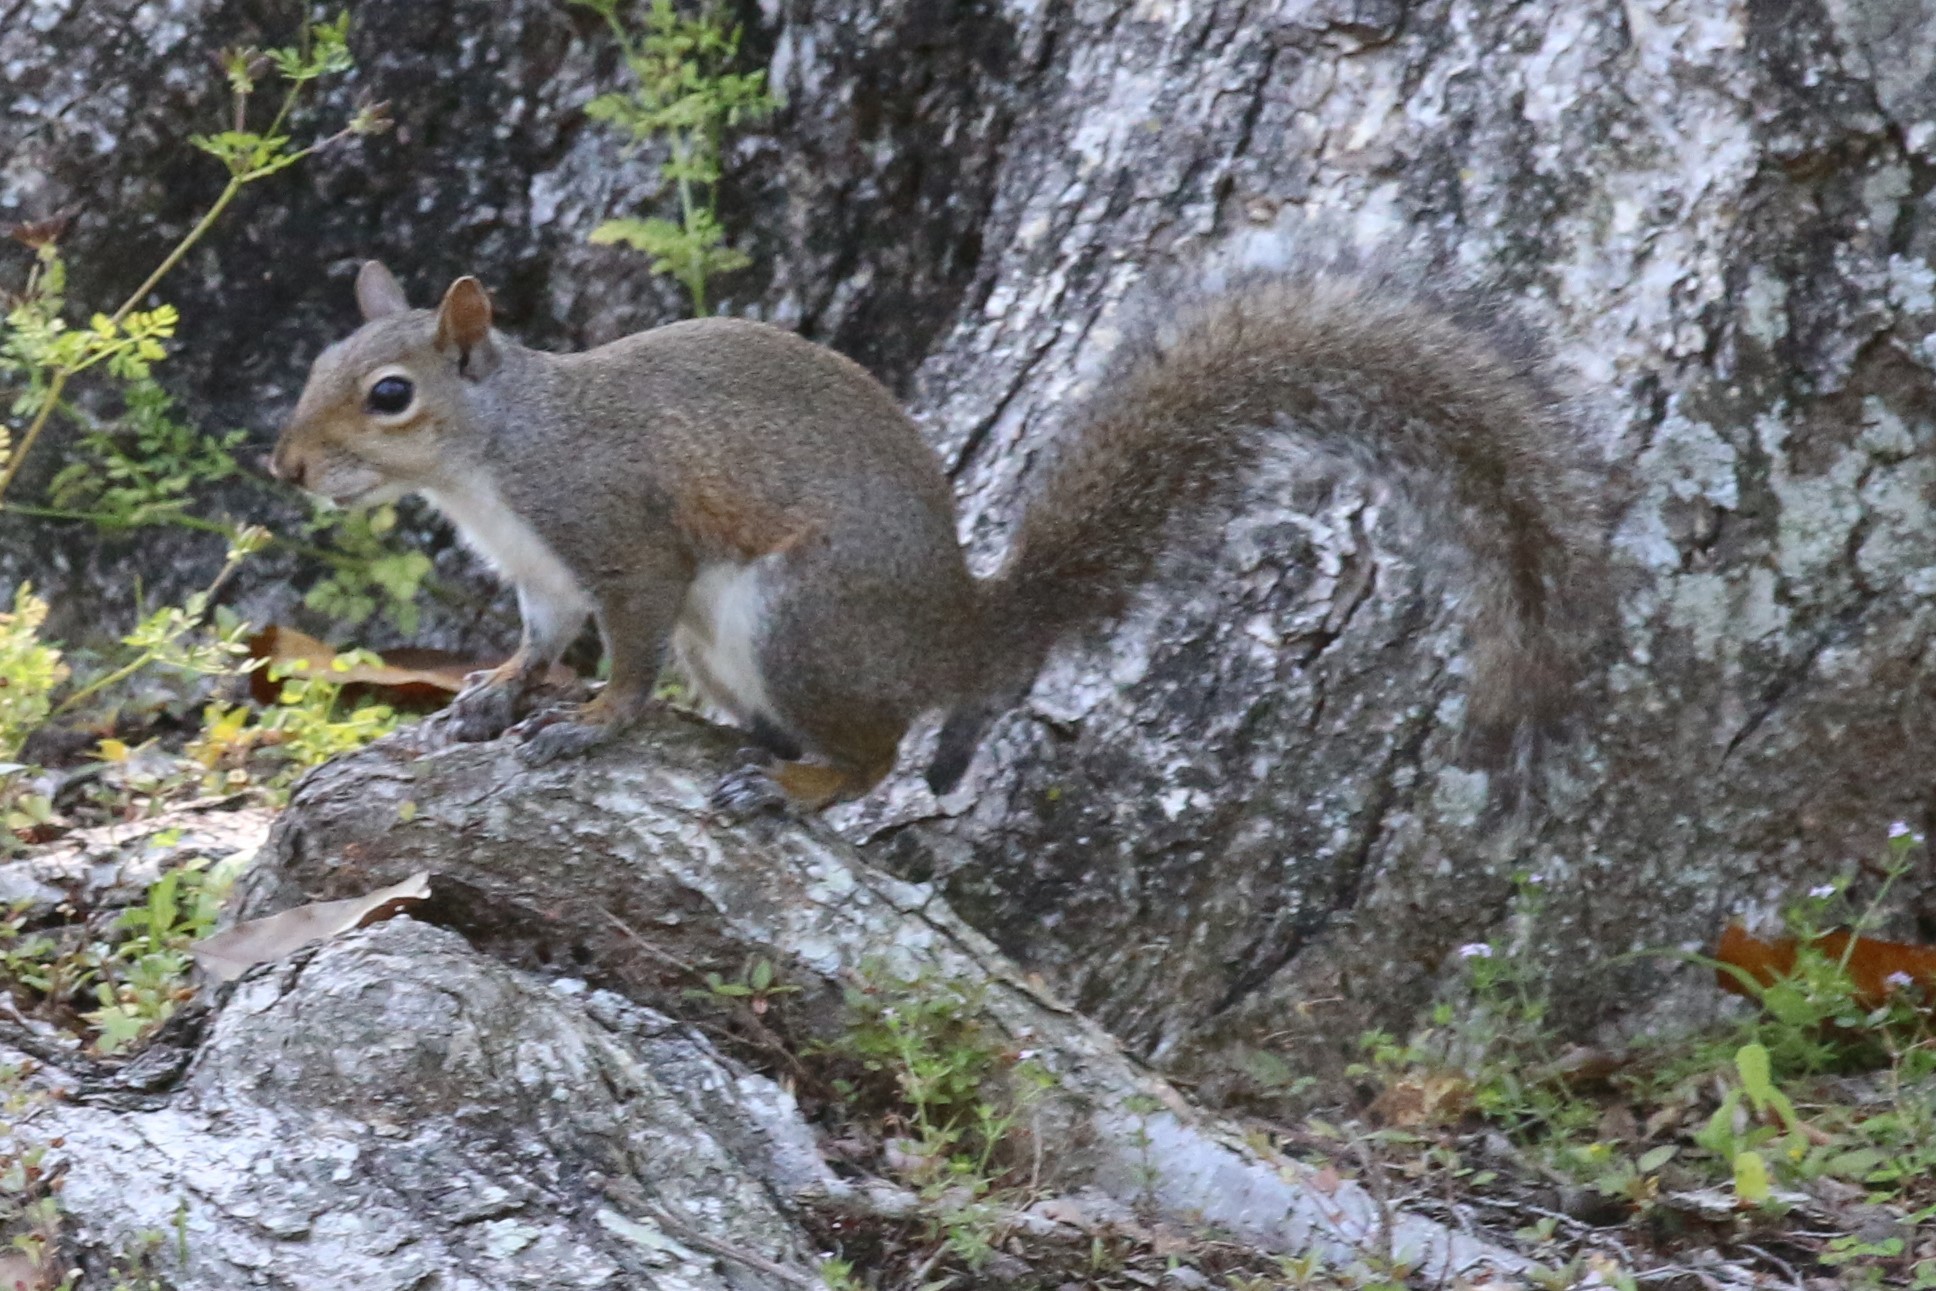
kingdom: Animalia
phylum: Chordata
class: Mammalia
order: Rodentia
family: Sciuridae
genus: Sciurus
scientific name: Sciurus carolinensis
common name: Eastern gray squirrel
